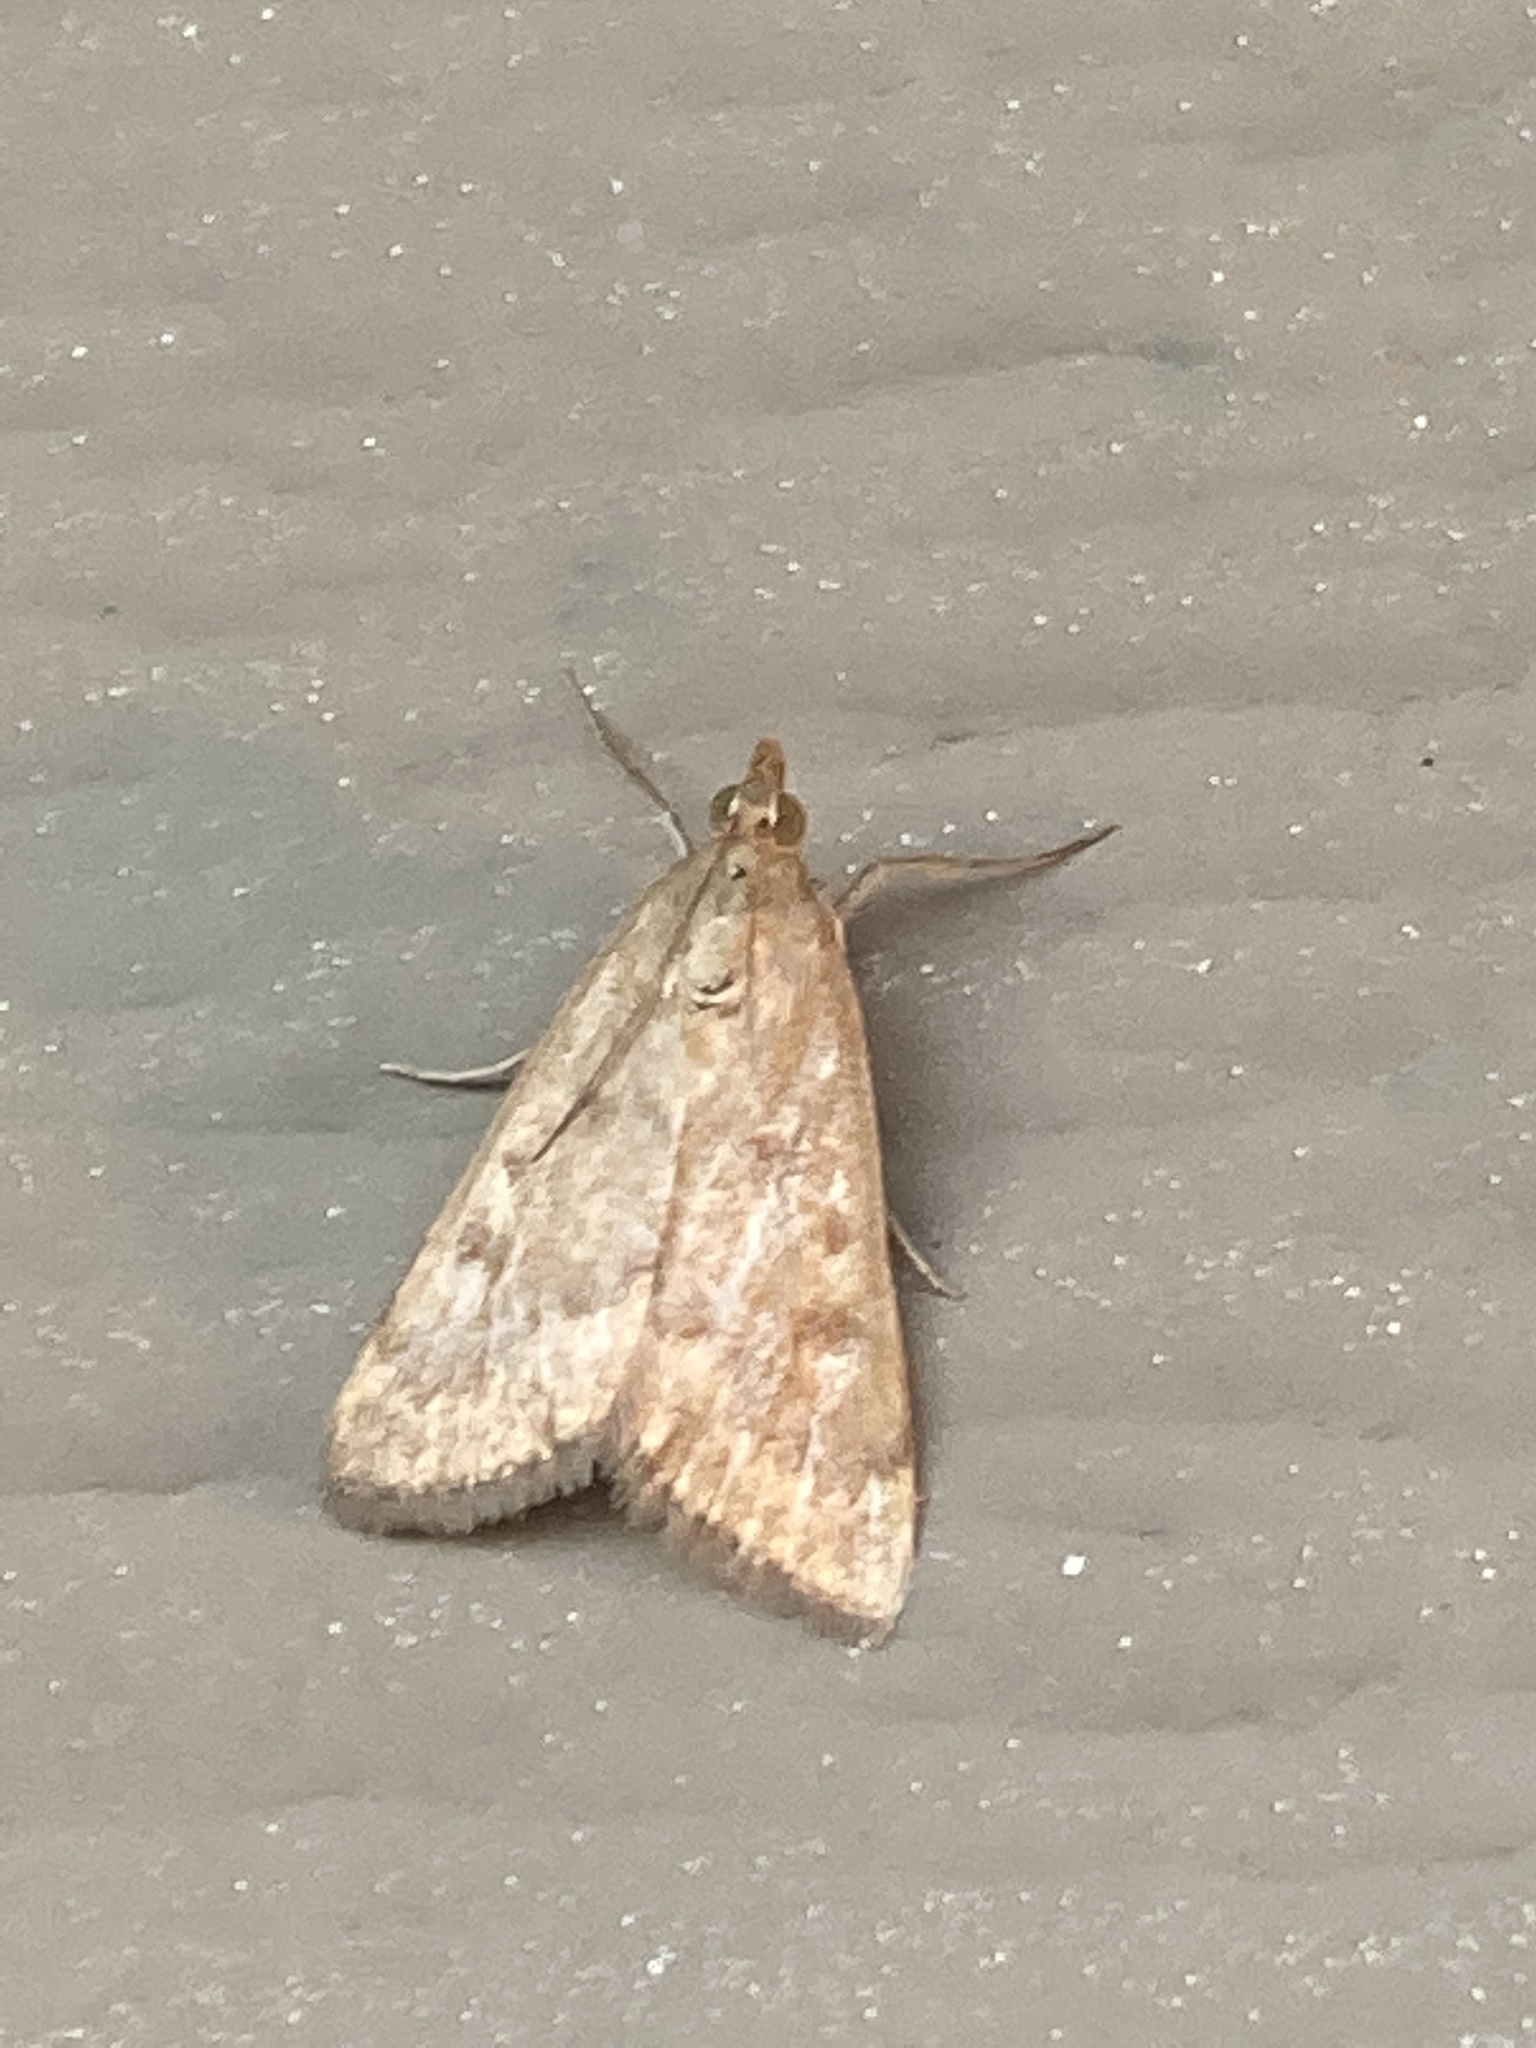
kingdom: Animalia
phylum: Arthropoda
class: Insecta
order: Lepidoptera
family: Crambidae
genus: Achyra
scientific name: Achyra rantalis
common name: Garden webworm
